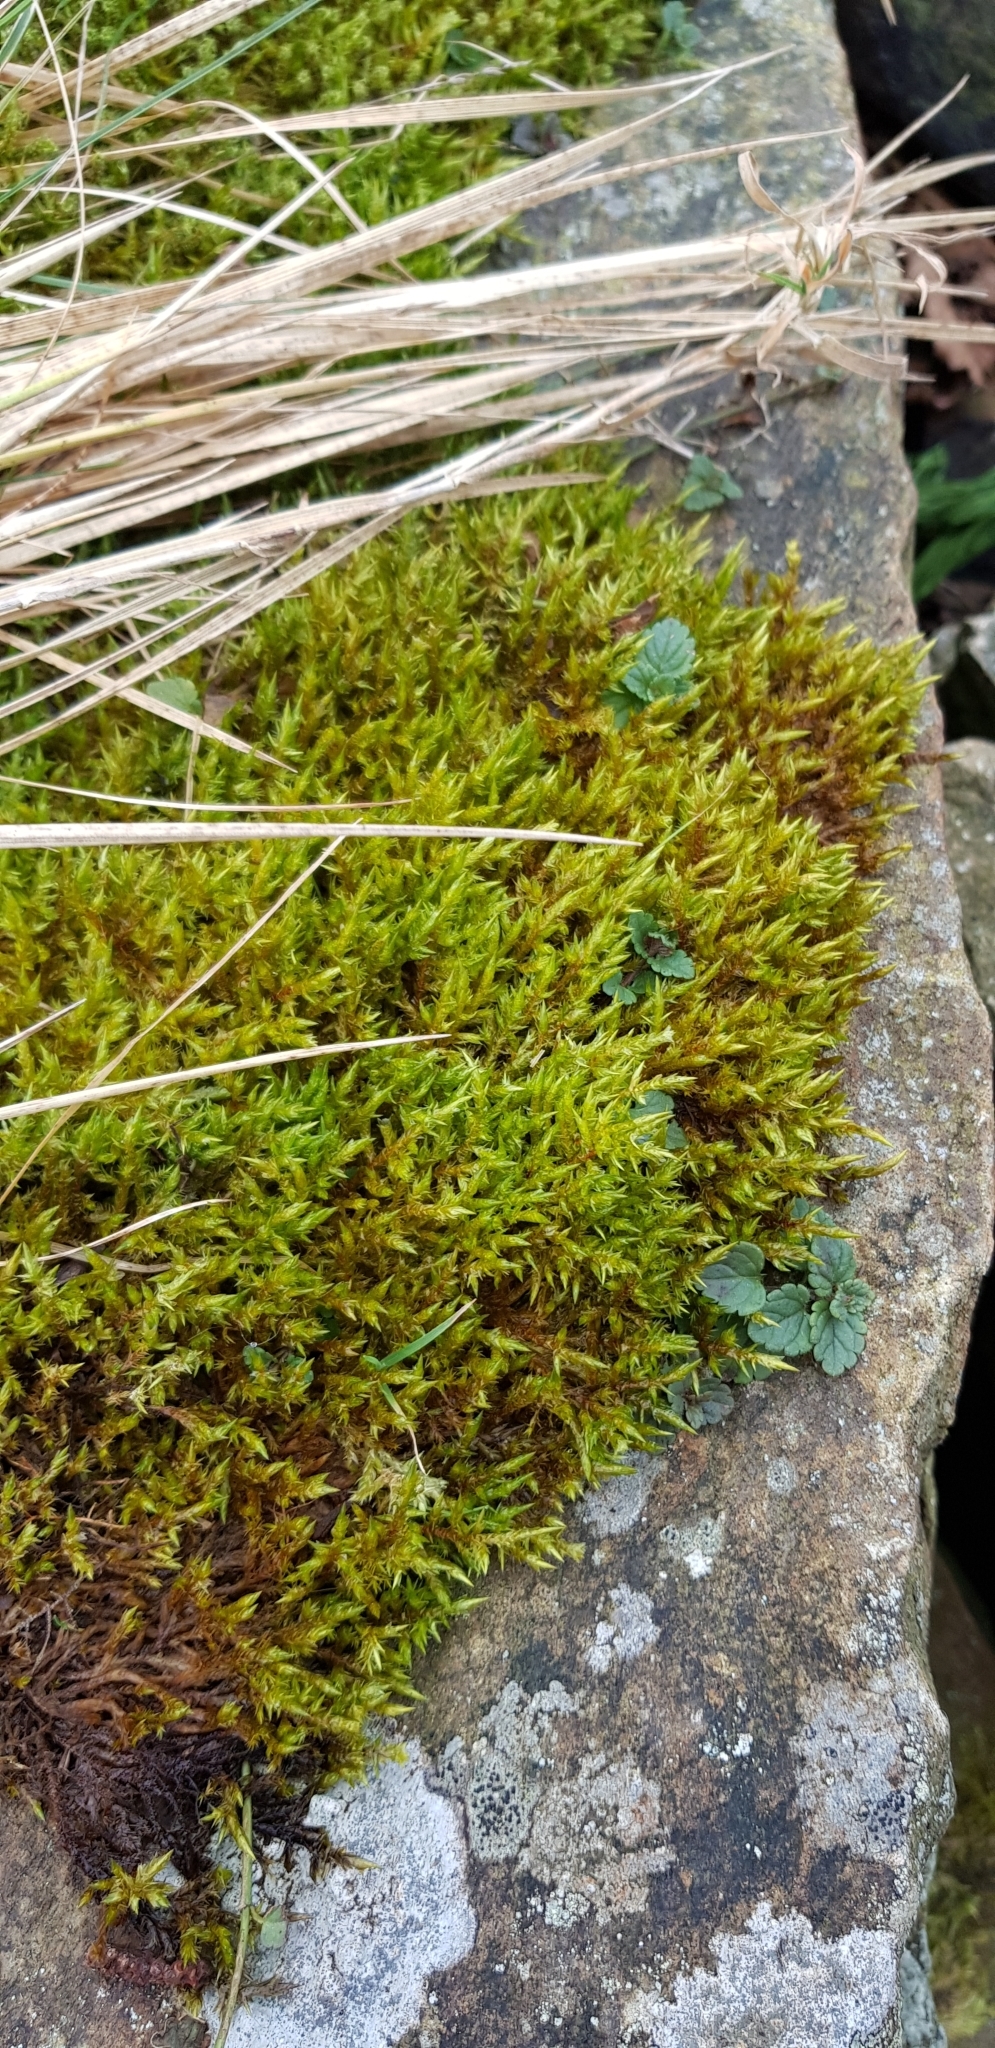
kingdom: Plantae
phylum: Bryophyta
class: Bryopsida
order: Hypnales
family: Pylaisiaceae
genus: Calliergonella
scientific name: Calliergonella cuspidata
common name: Common large wetland moss
